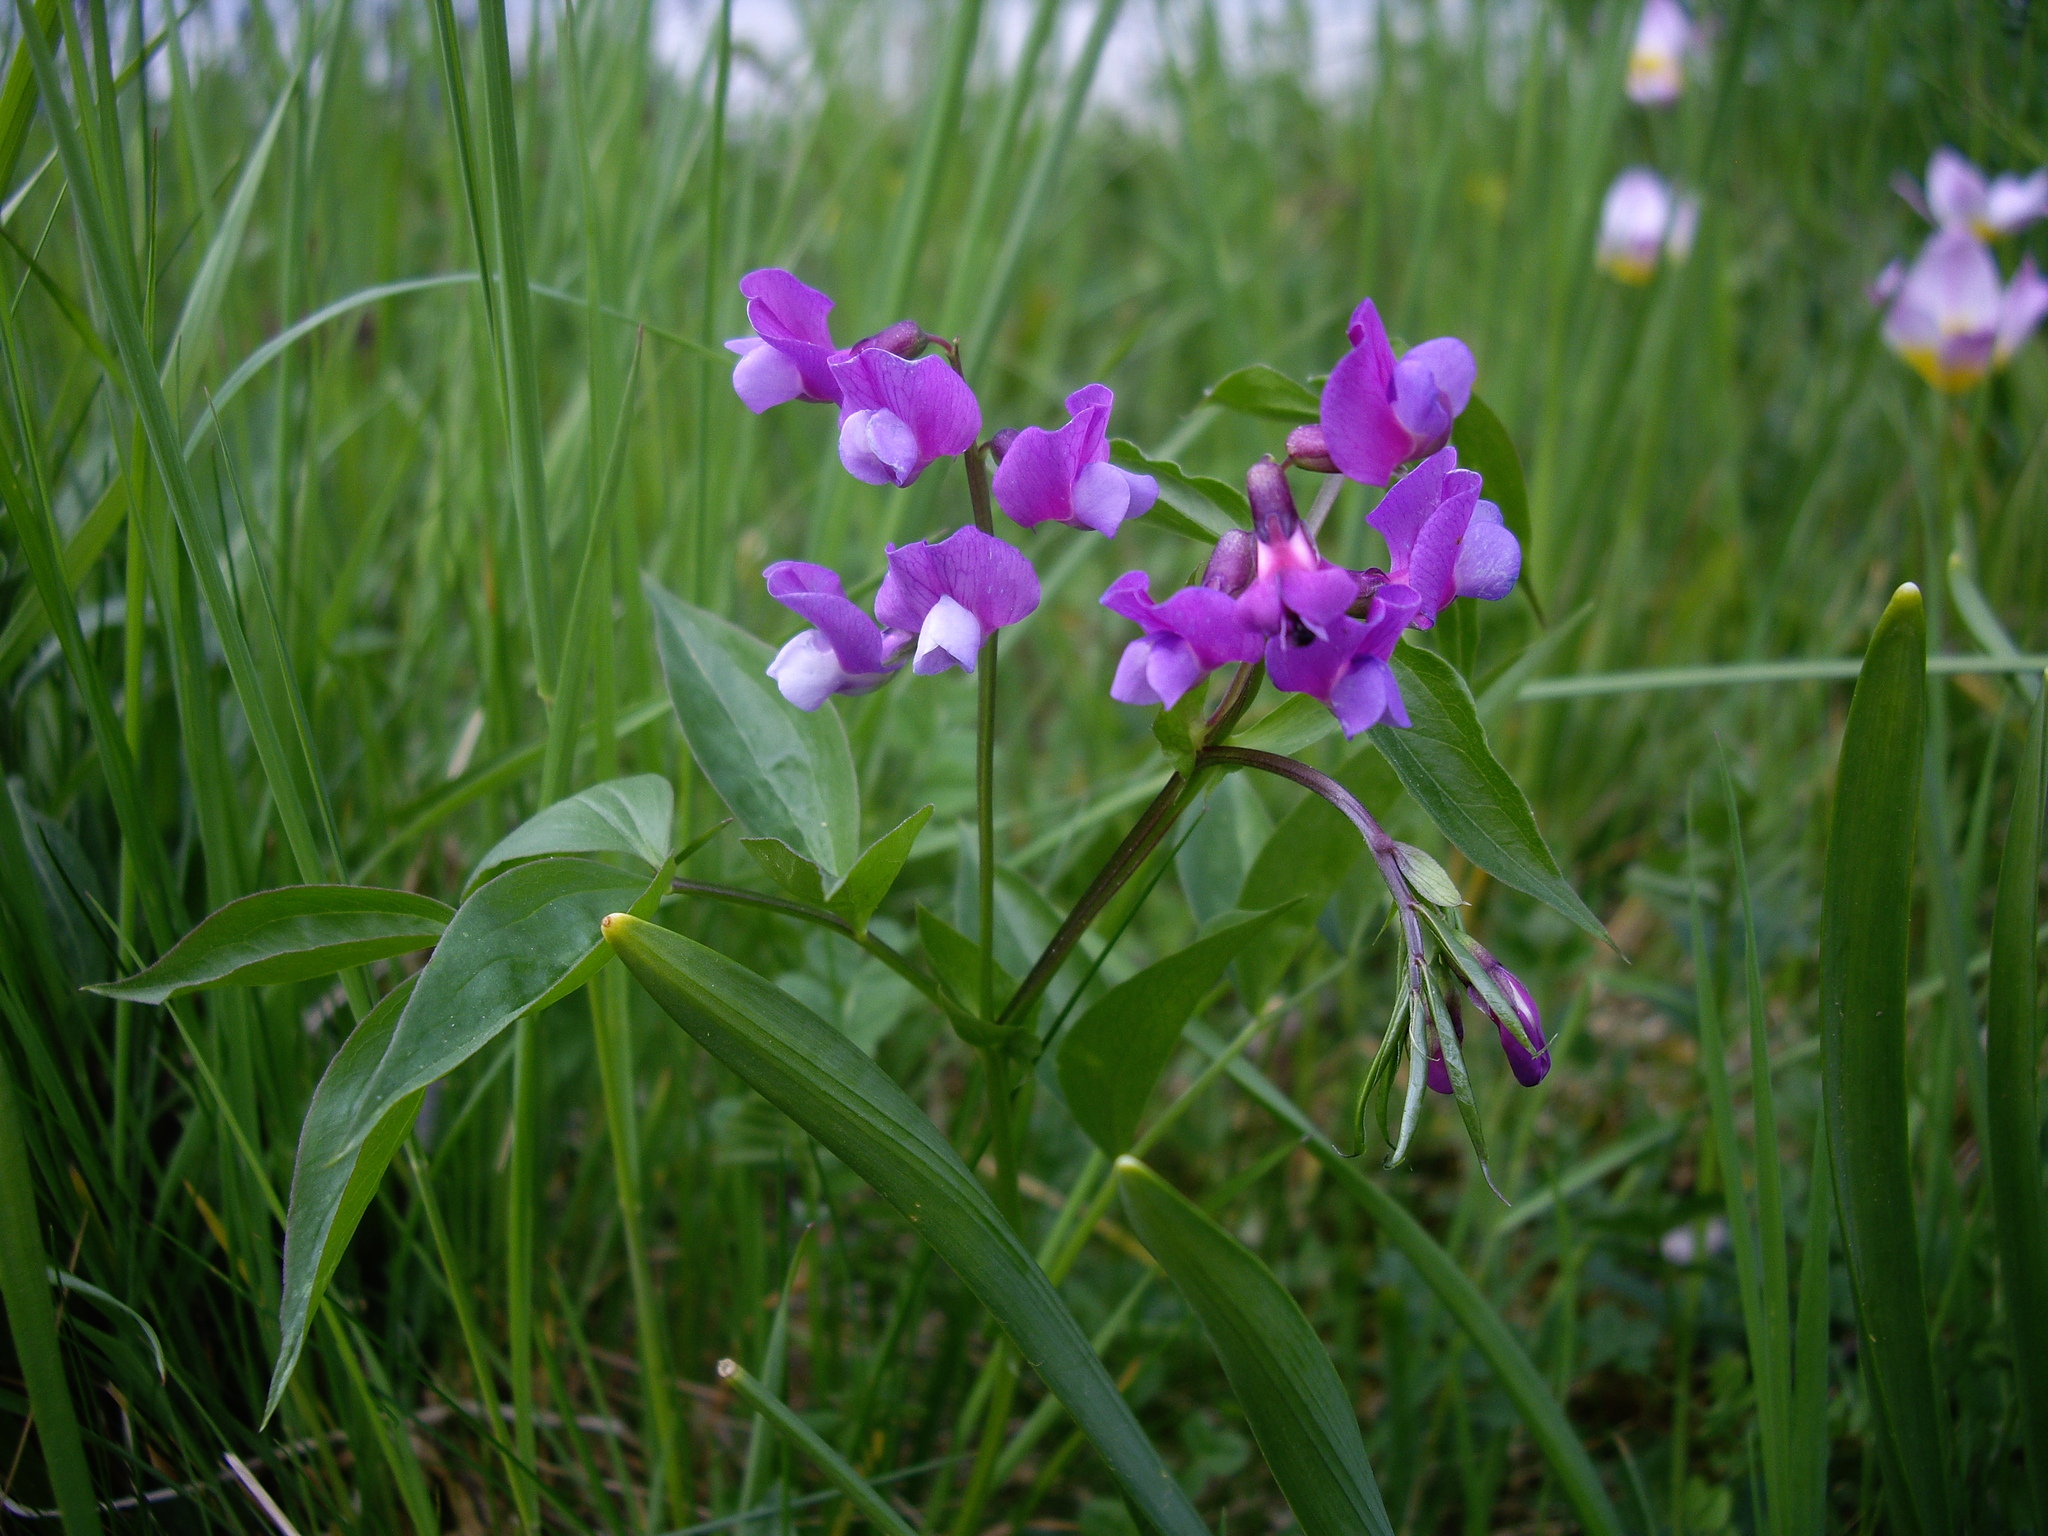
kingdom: Plantae
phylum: Tracheophyta
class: Magnoliopsida
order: Fabales
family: Fabaceae
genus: Lathyrus
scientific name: Lathyrus vernus
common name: Spring pea
